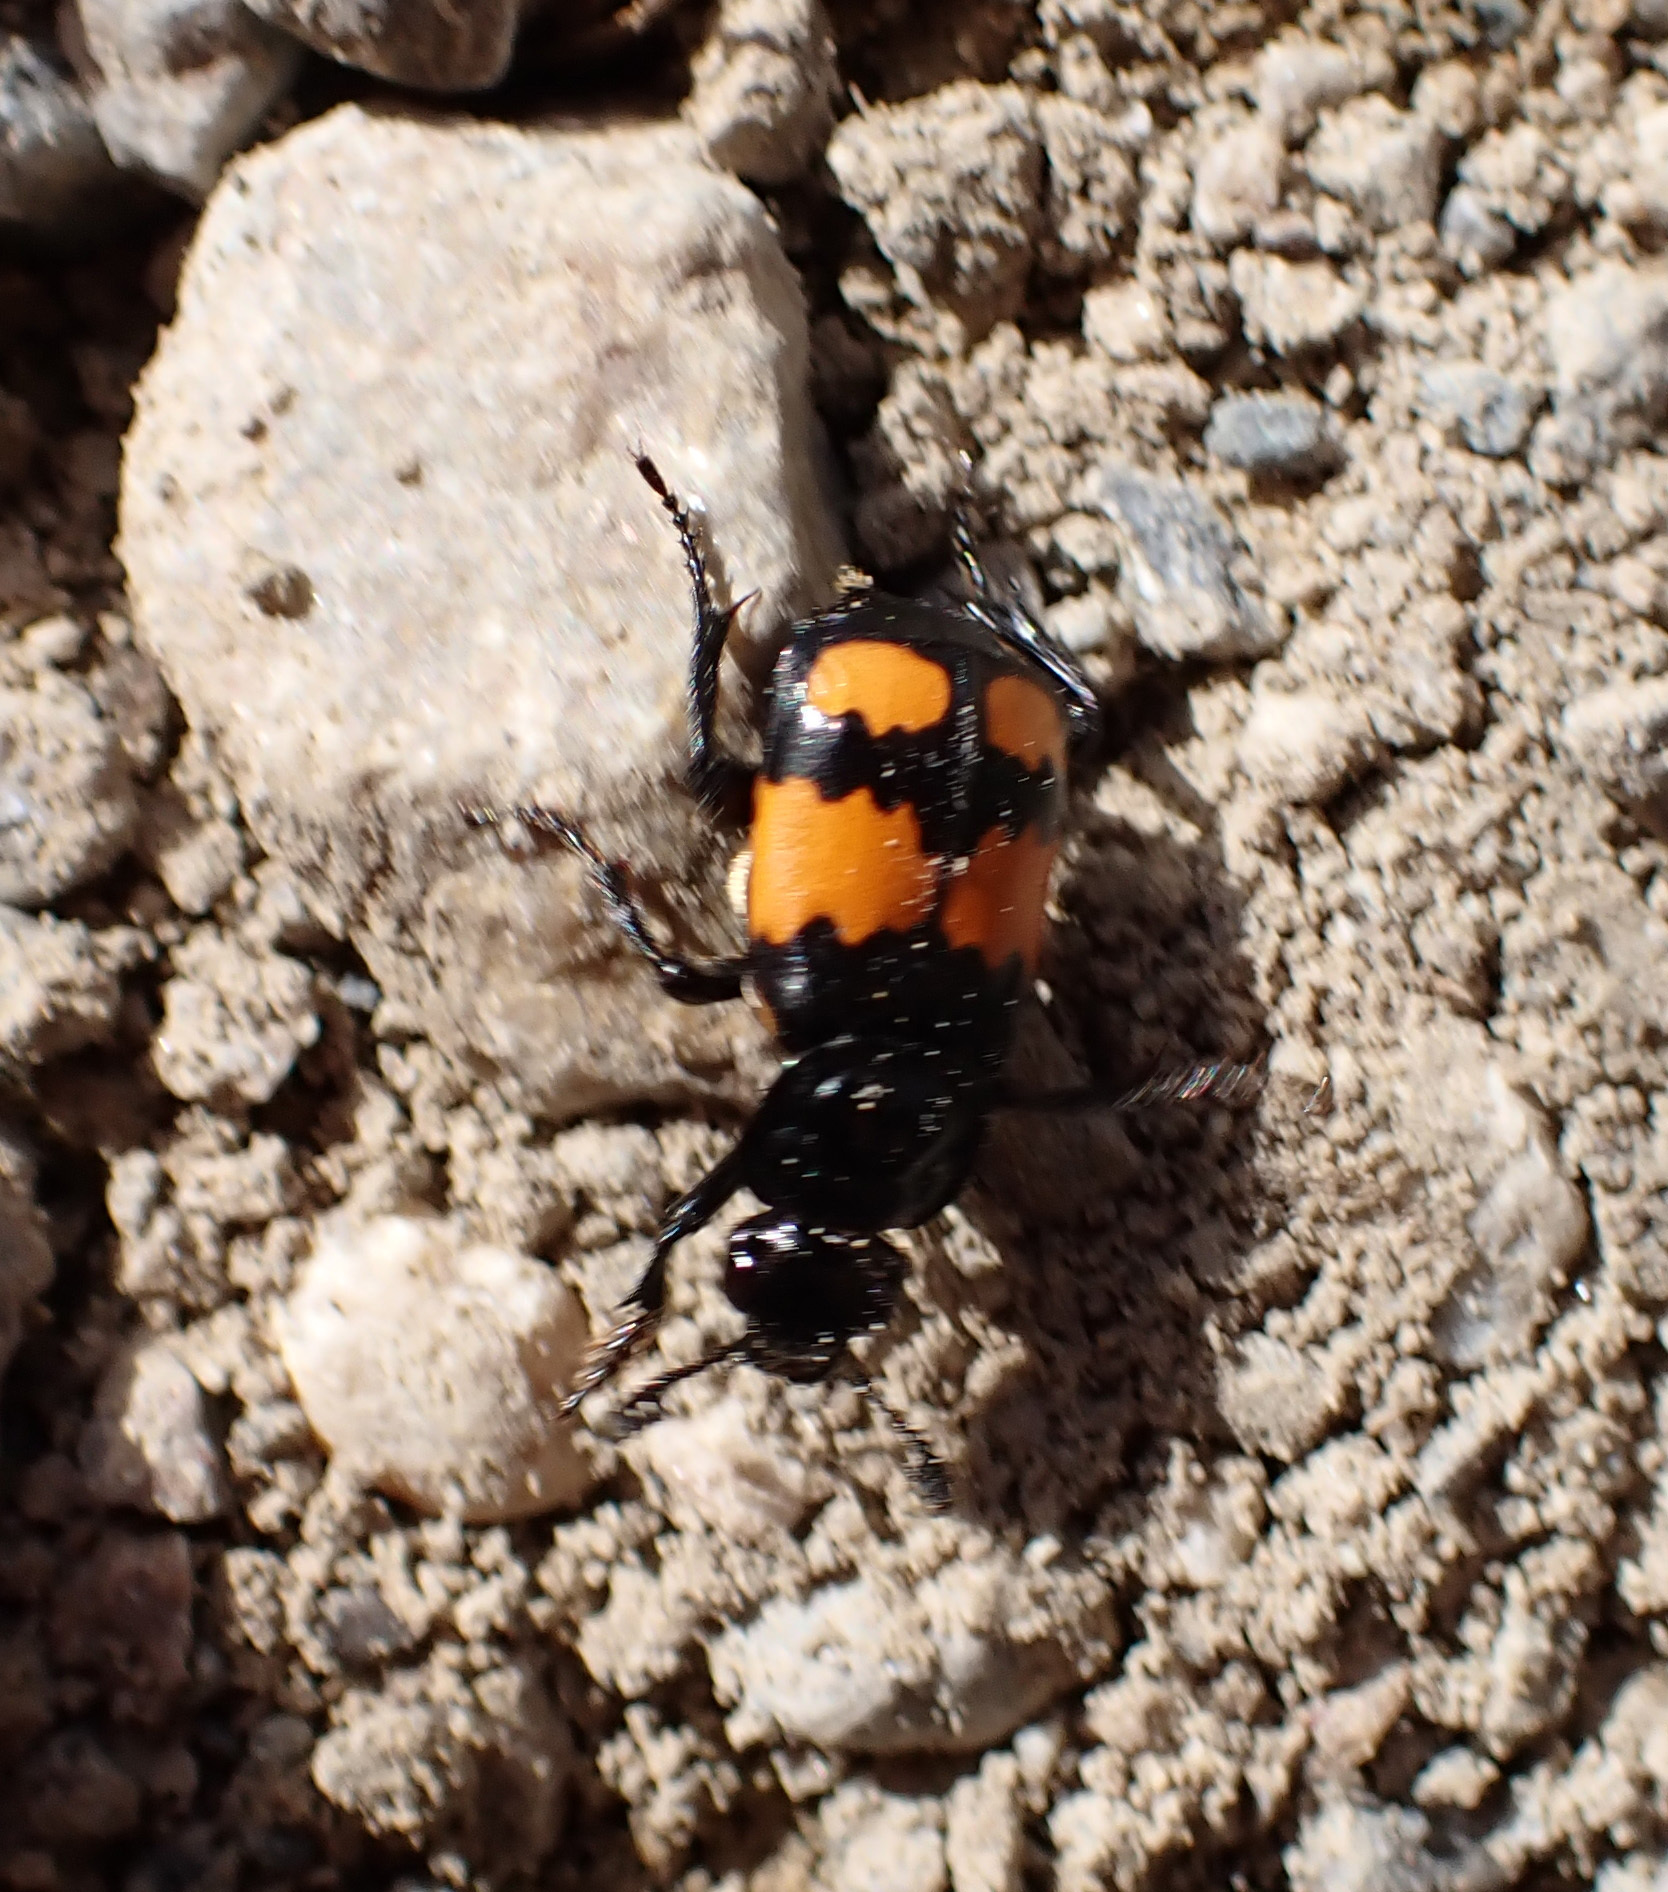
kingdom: Animalia
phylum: Arthropoda
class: Insecta
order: Coleoptera
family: Staphylinidae
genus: Nicrophorus
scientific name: Nicrophorus vespilloides
